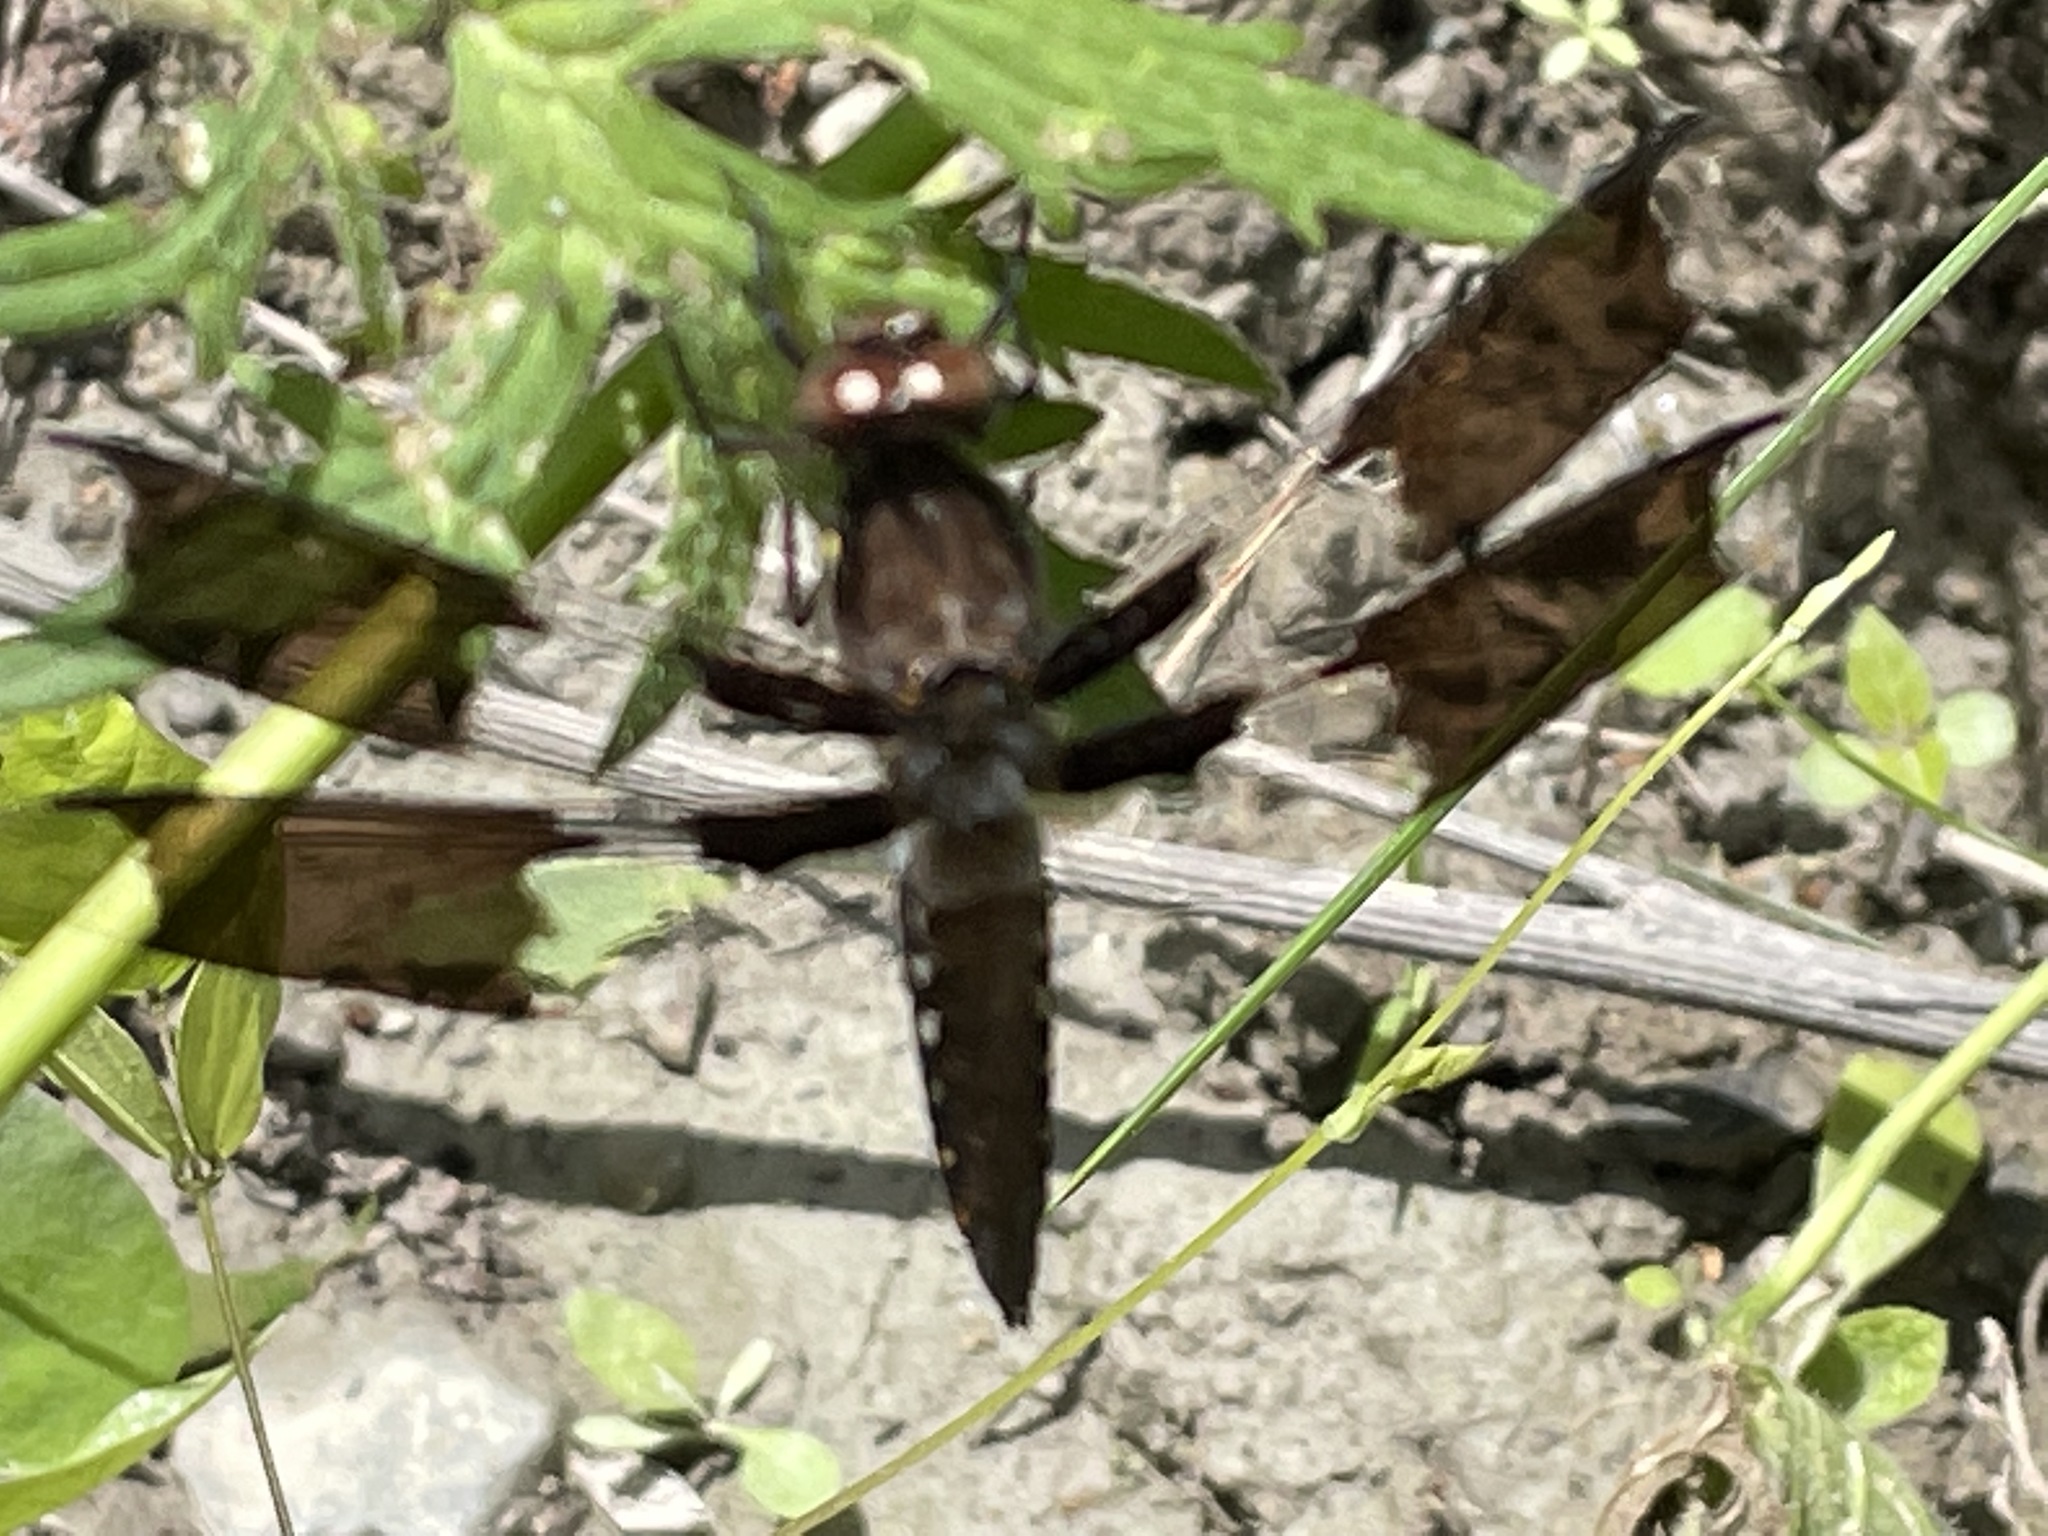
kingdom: Animalia
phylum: Arthropoda
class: Insecta
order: Odonata
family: Libellulidae
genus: Plathemis
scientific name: Plathemis lydia
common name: Common whitetail
